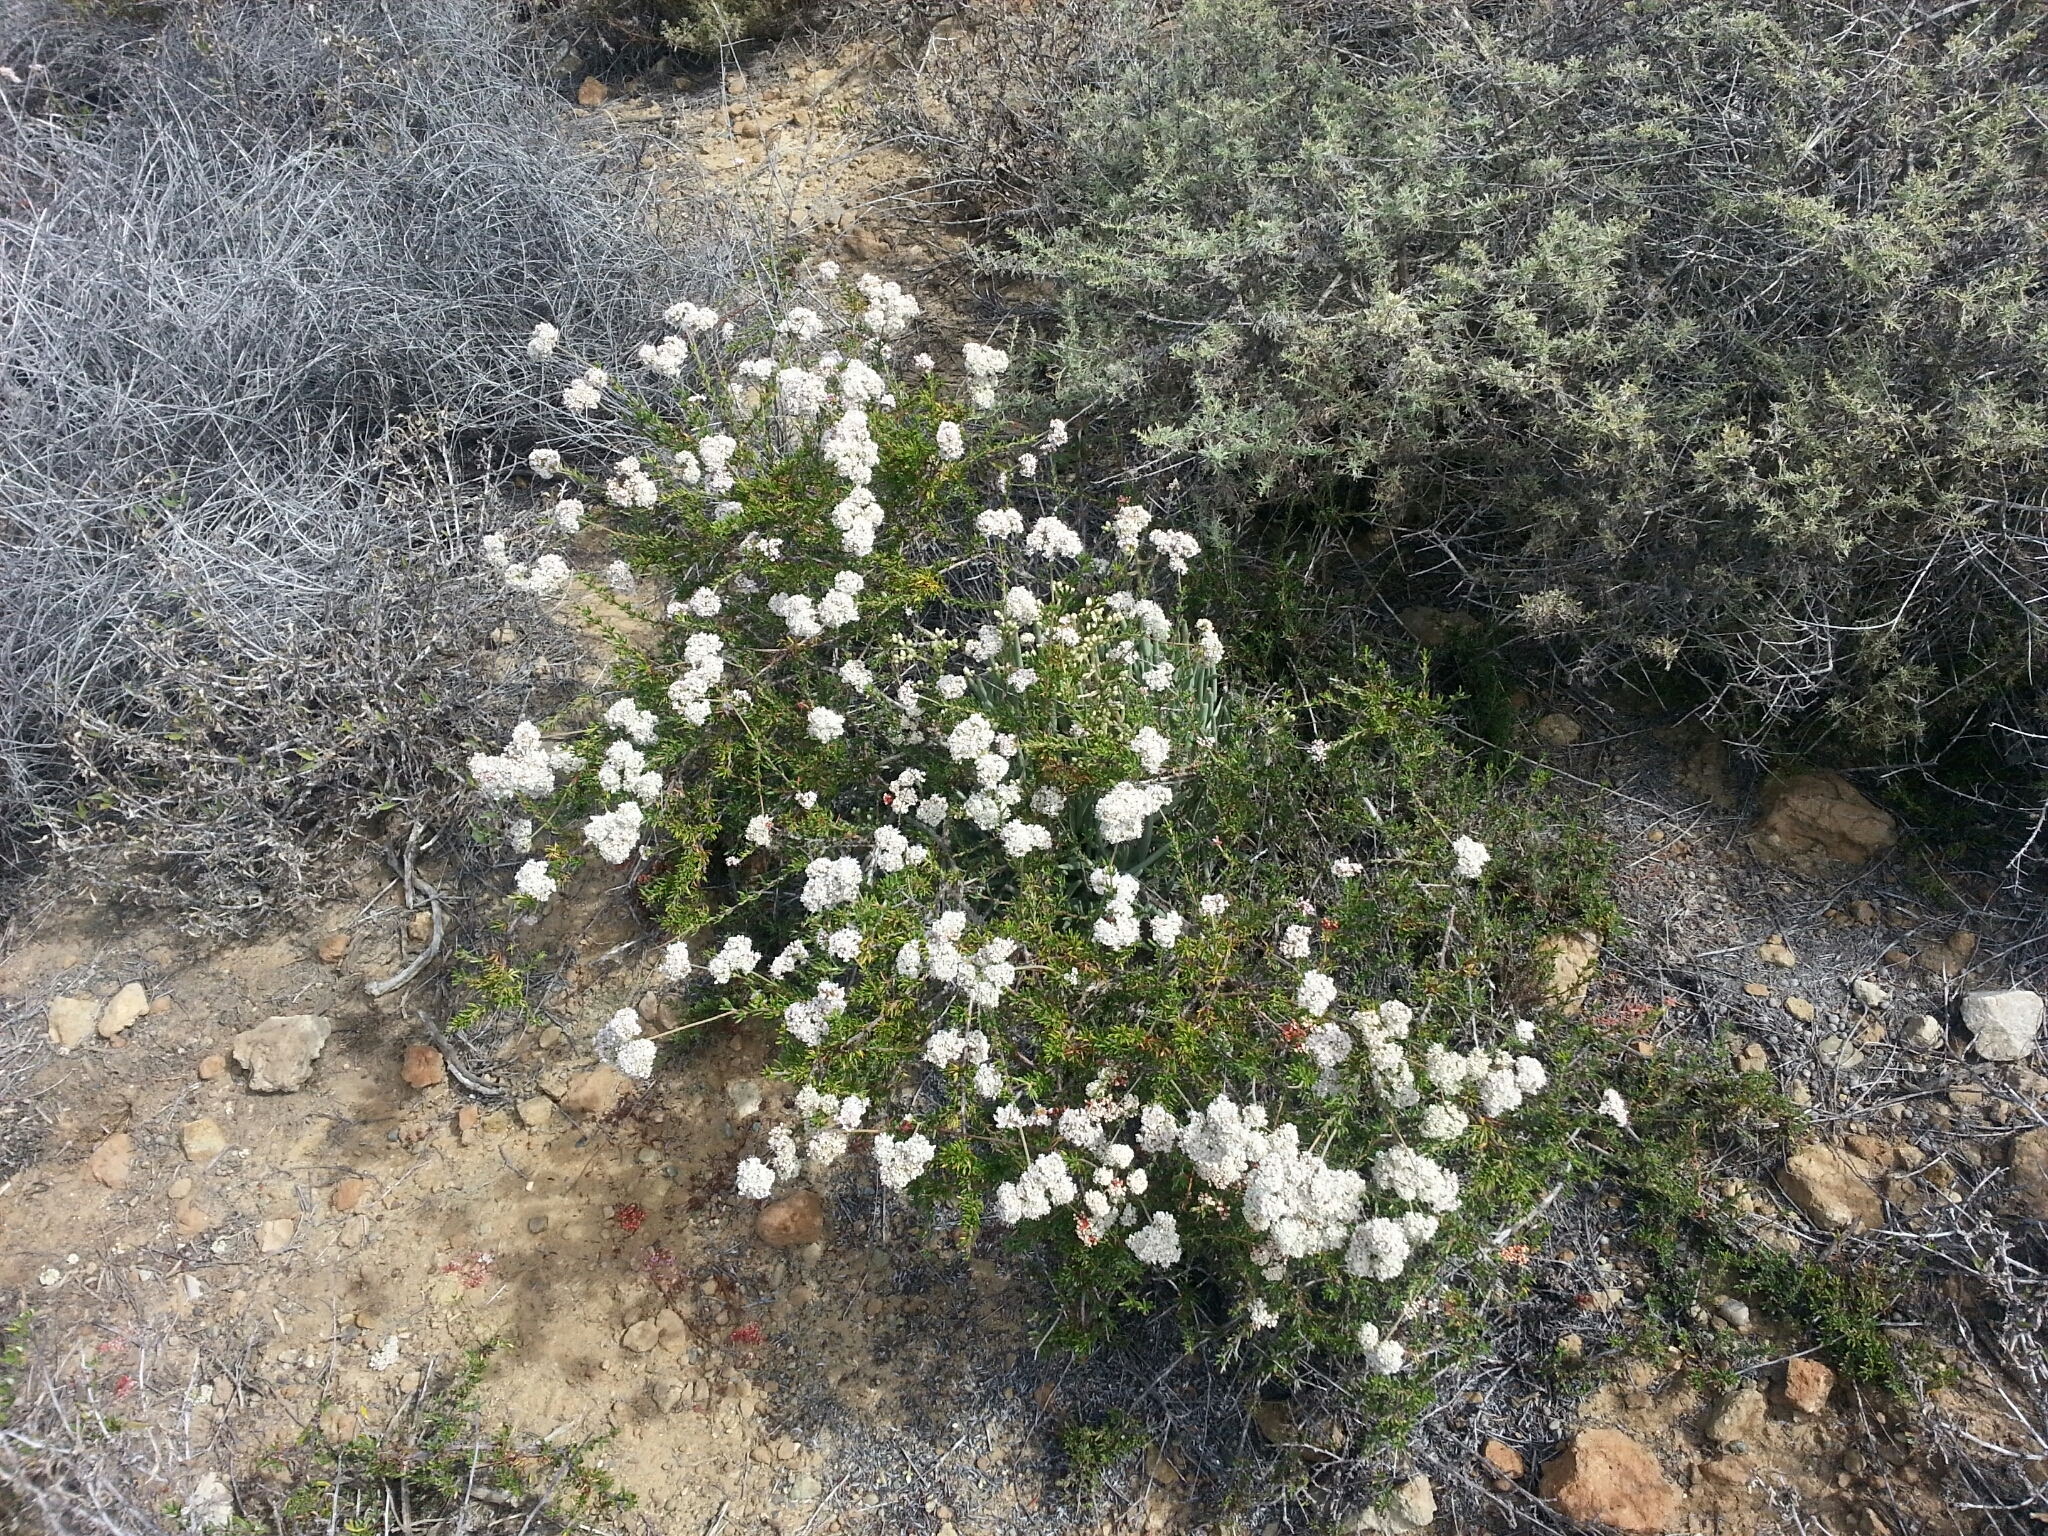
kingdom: Plantae
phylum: Tracheophyta
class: Magnoliopsida
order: Caryophyllales
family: Polygonaceae
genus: Eriogonum
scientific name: Eriogonum fasciculatum
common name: California wild buckwheat
